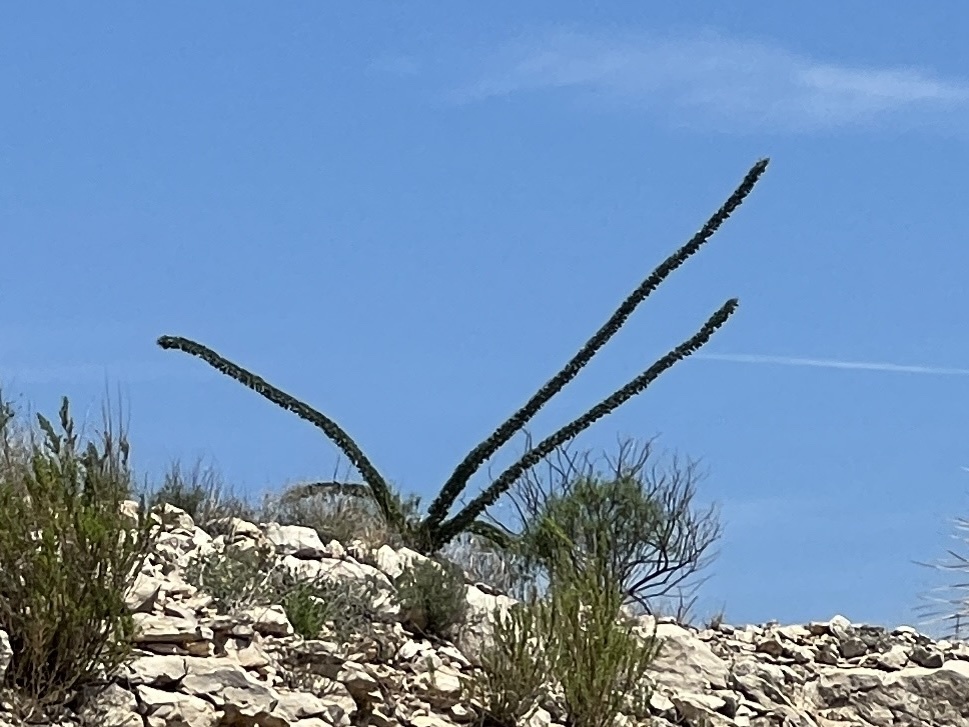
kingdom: Plantae
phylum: Tracheophyta
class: Magnoliopsida
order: Ericales
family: Fouquieriaceae
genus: Fouquieria
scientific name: Fouquieria splendens
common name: Vine-cactus
